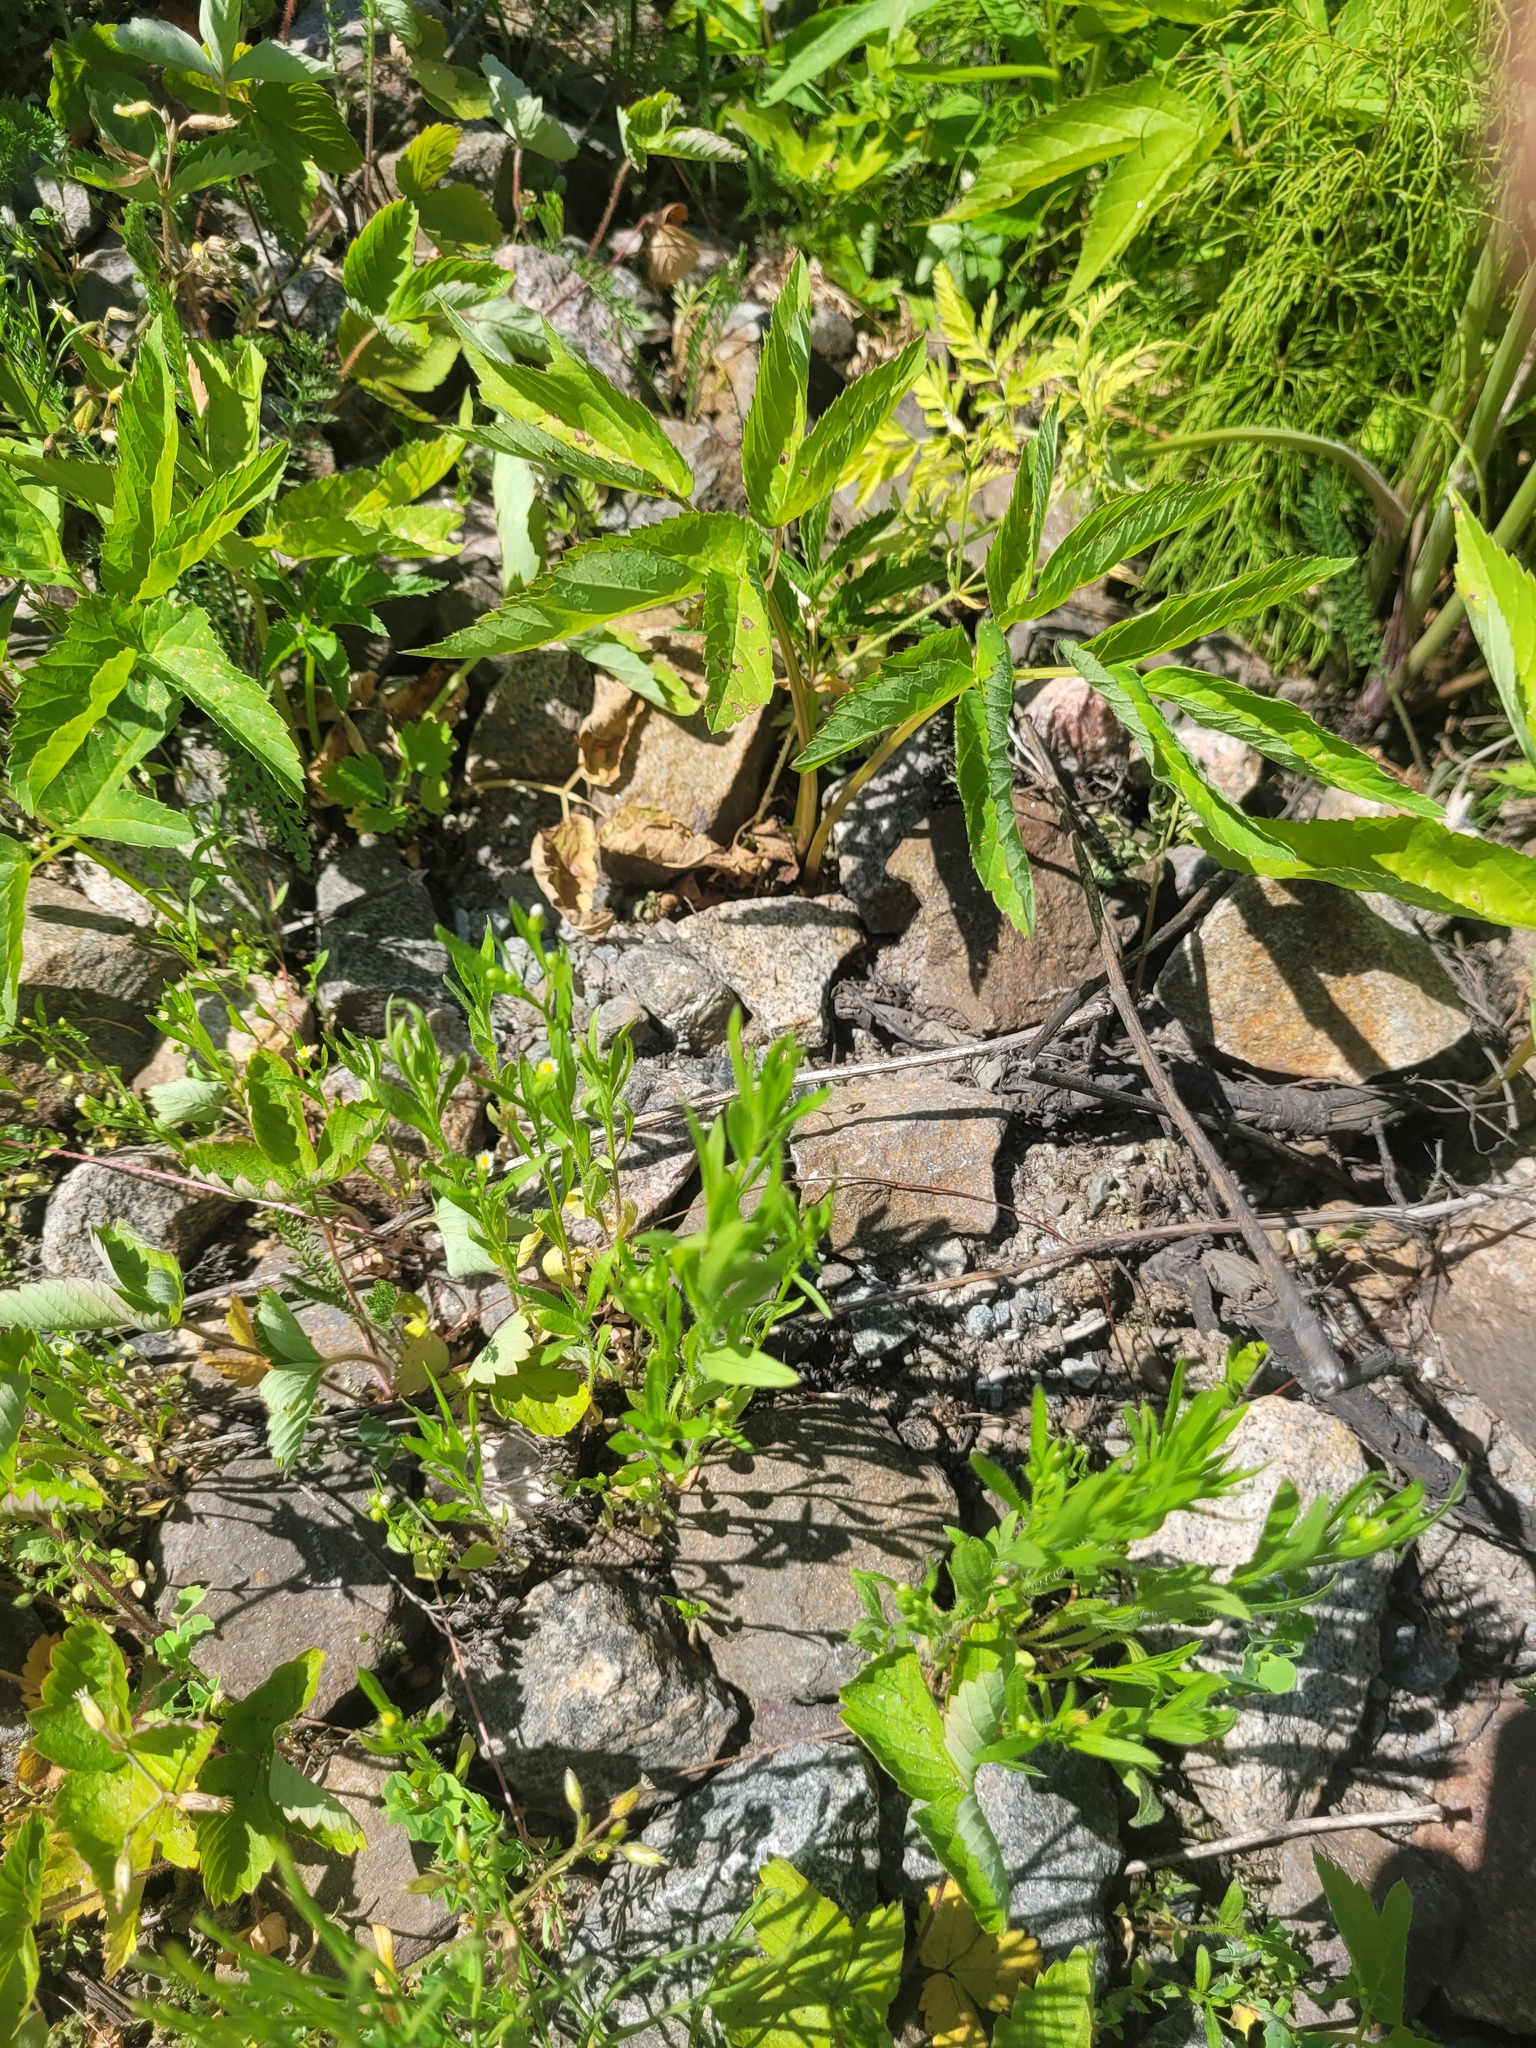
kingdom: Plantae
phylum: Tracheophyta
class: Magnoliopsida
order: Asterales
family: Asteraceae
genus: Erigeron
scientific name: Erigeron canadensis
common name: Canadian fleabane
